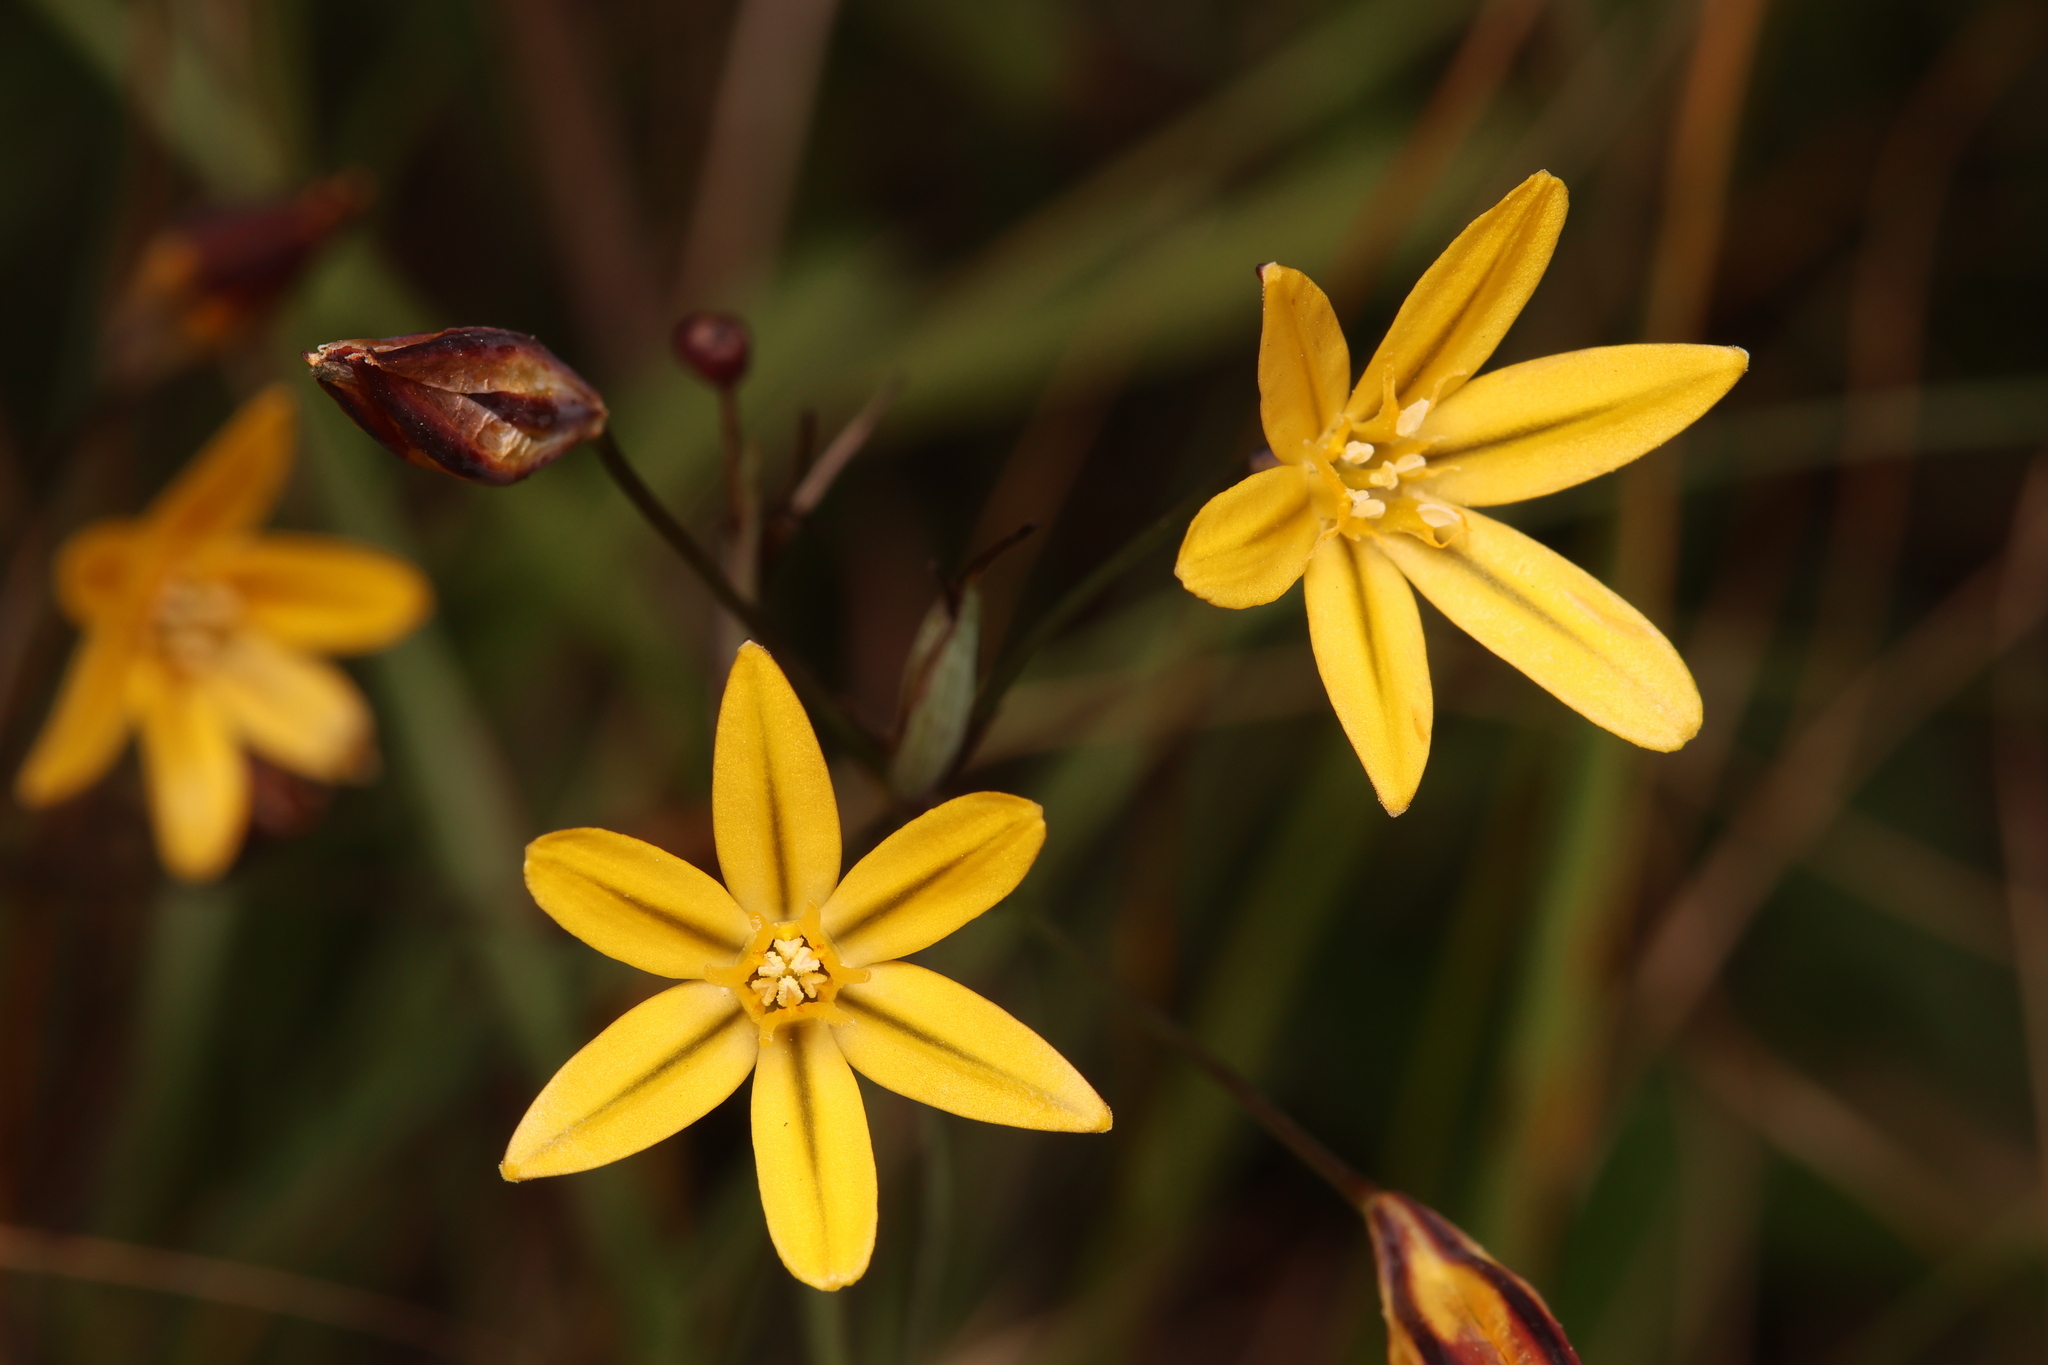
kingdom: Plantae
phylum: Tracheophyta
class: Liliopsida
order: Asparagales
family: Asparagaceae
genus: Triteleia
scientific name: Triteleia ixioides
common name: Yellow-brodiaea
